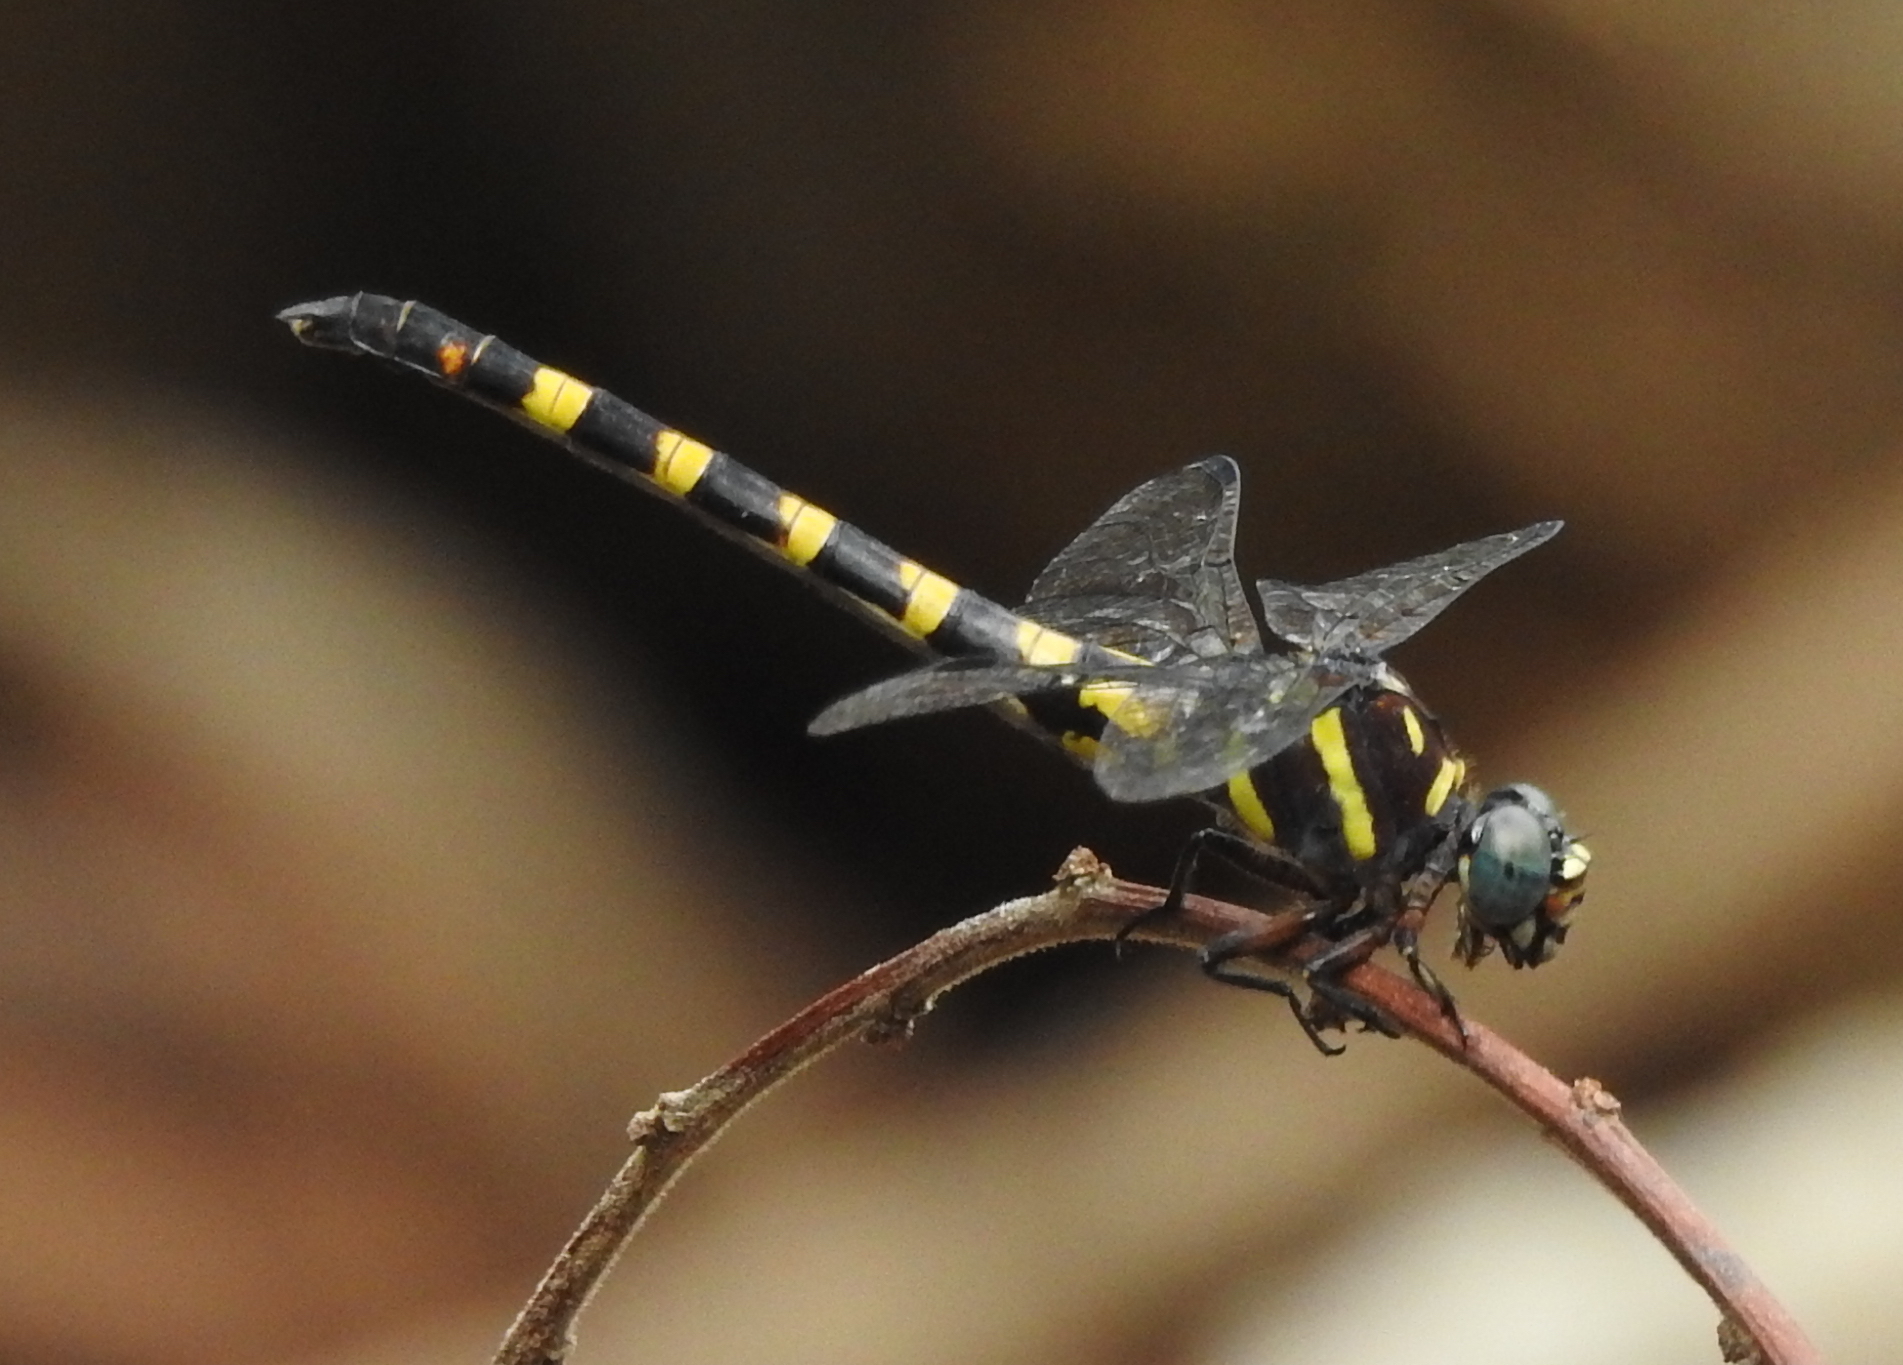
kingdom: Animalia
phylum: Arthropoda
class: Insecta
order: Odonata
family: Gomphidae
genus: Paragomphus
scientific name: Paragomphus capricornis
